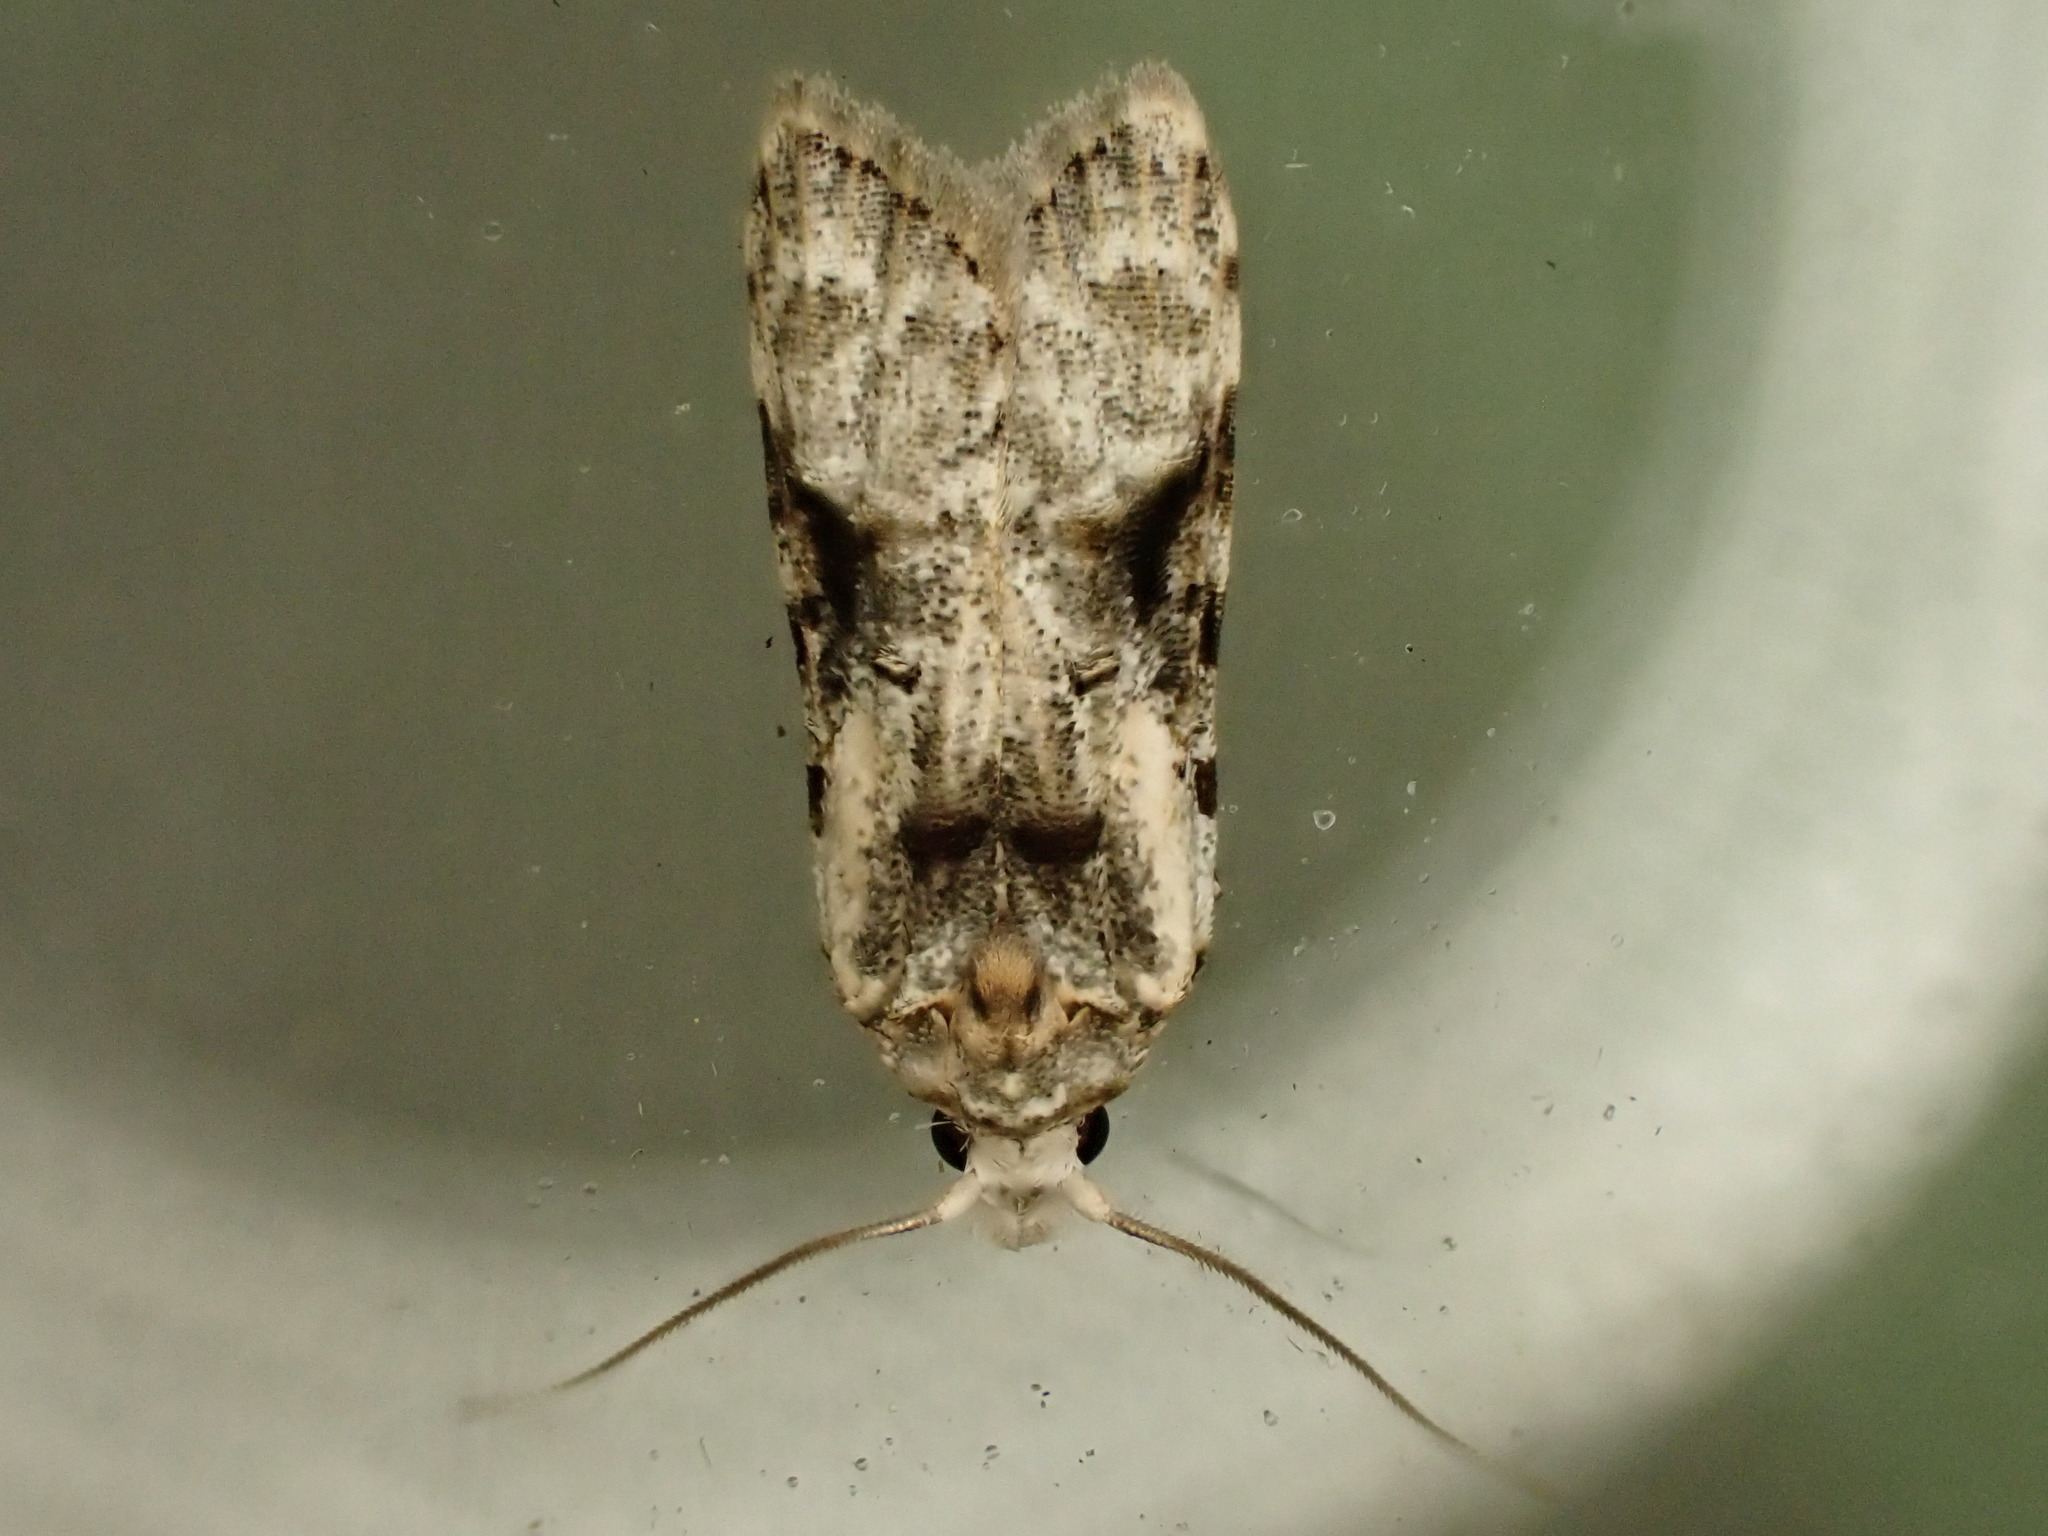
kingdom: Animalia
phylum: Arthropoda
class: Insecta
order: Lepidoptera
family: Carposinidae
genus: Coscinoptycha
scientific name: Coscinoptycha improbana
